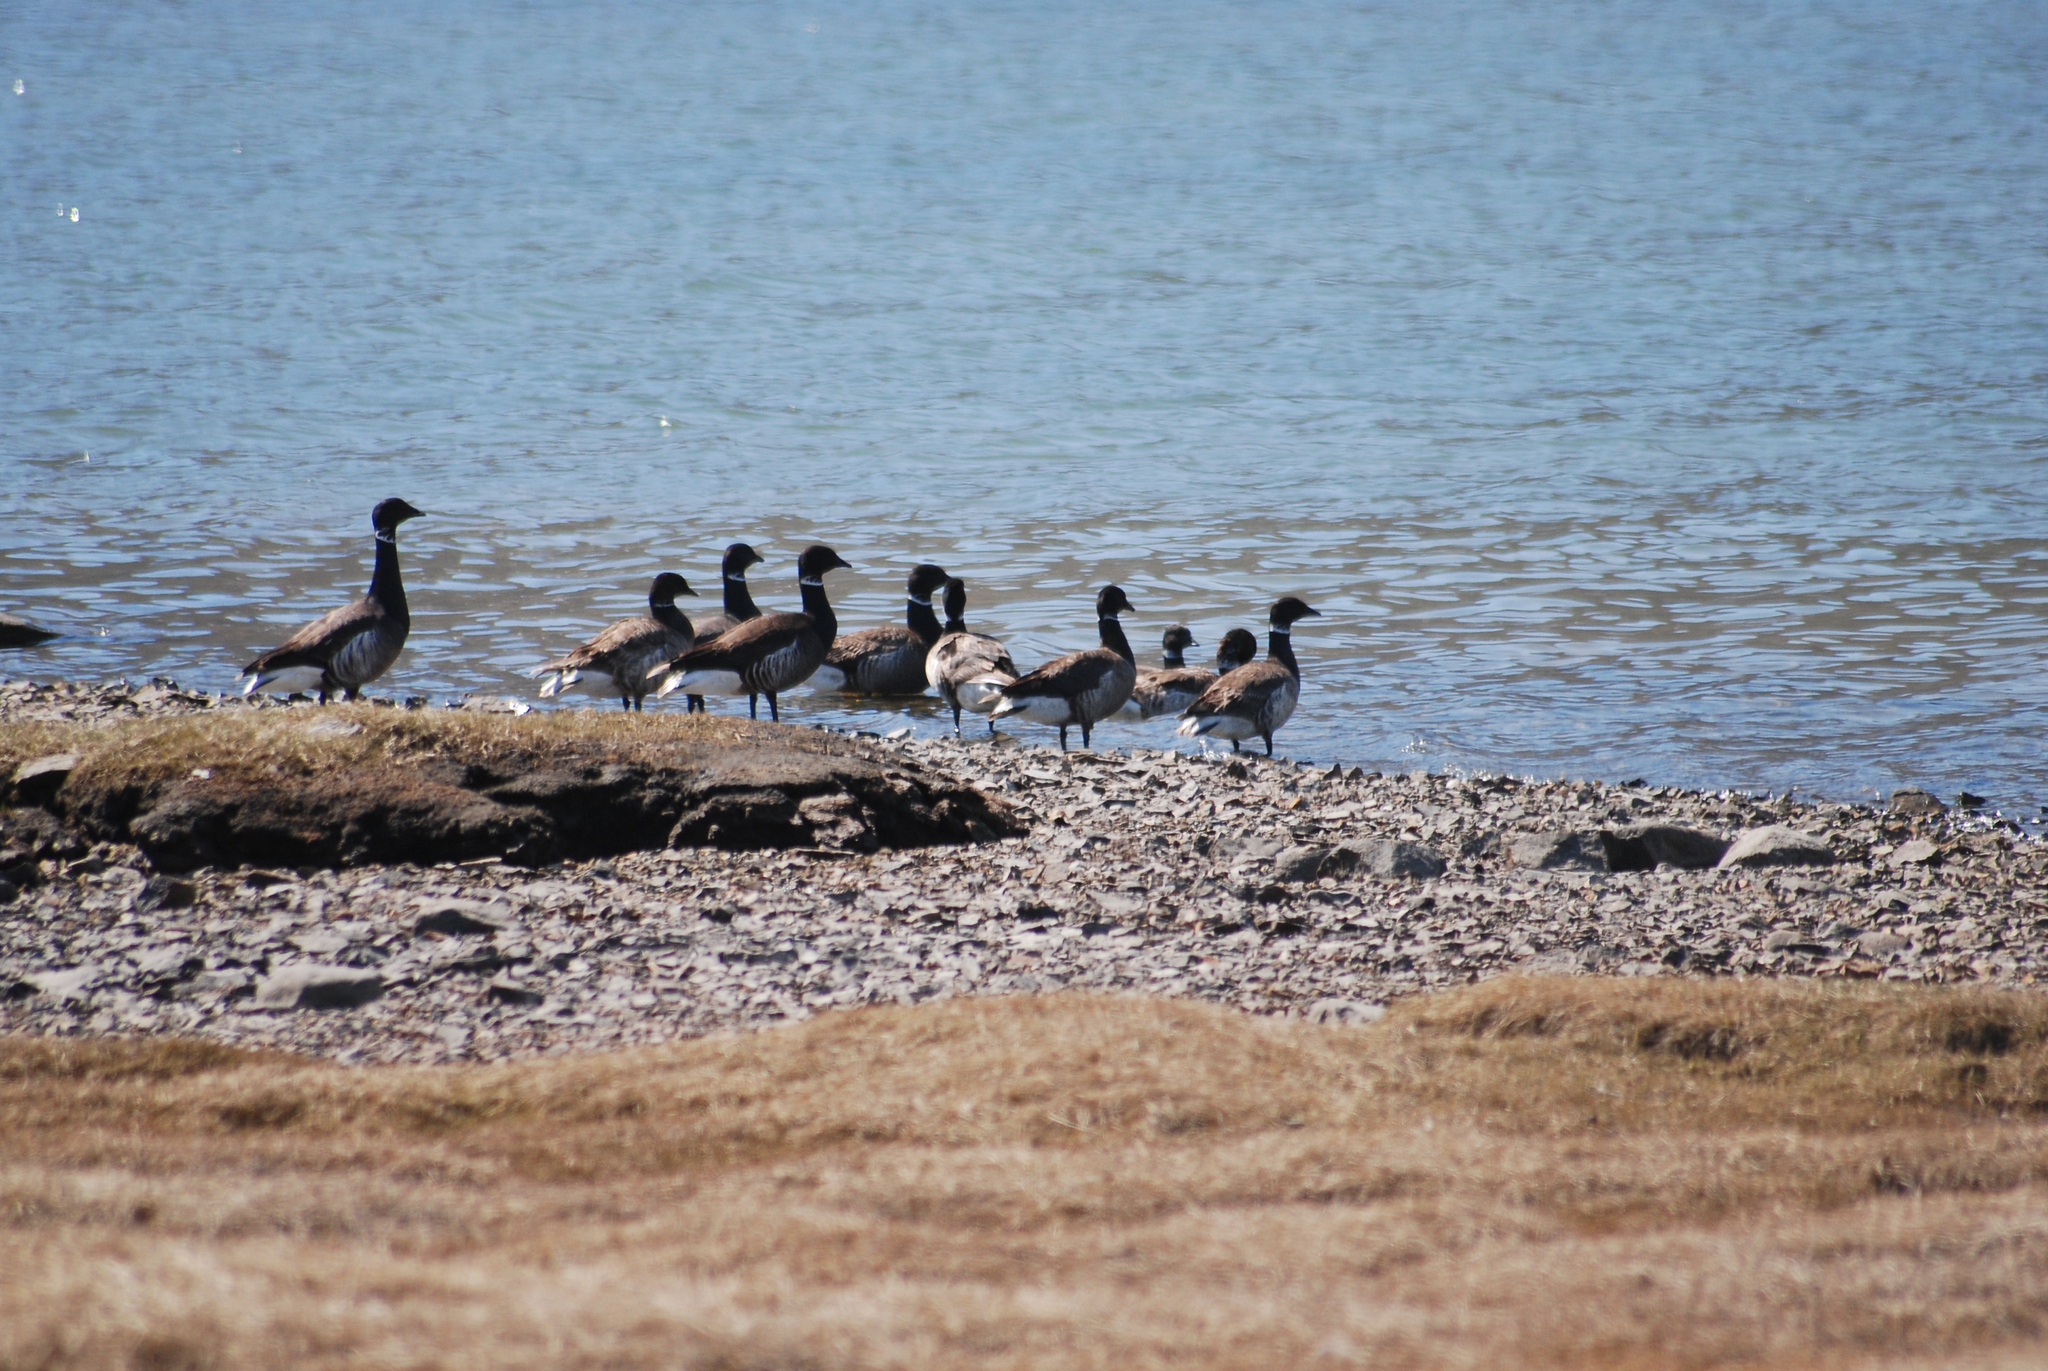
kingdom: Animalia
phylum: Chordata
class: Aves
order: Anseriformes
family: Anatidae
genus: Branta
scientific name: Branta bernicla
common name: Brant goose
